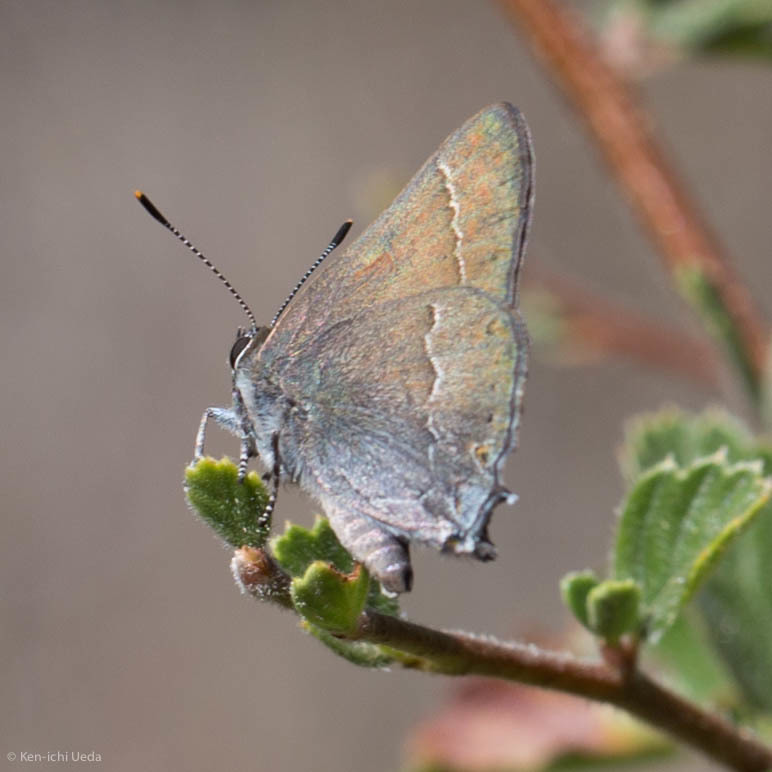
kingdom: Animalia
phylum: Arthropoda
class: Insecta
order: Lepidoptera
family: Lycaenidae
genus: Thecla
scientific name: Thecla tetra
